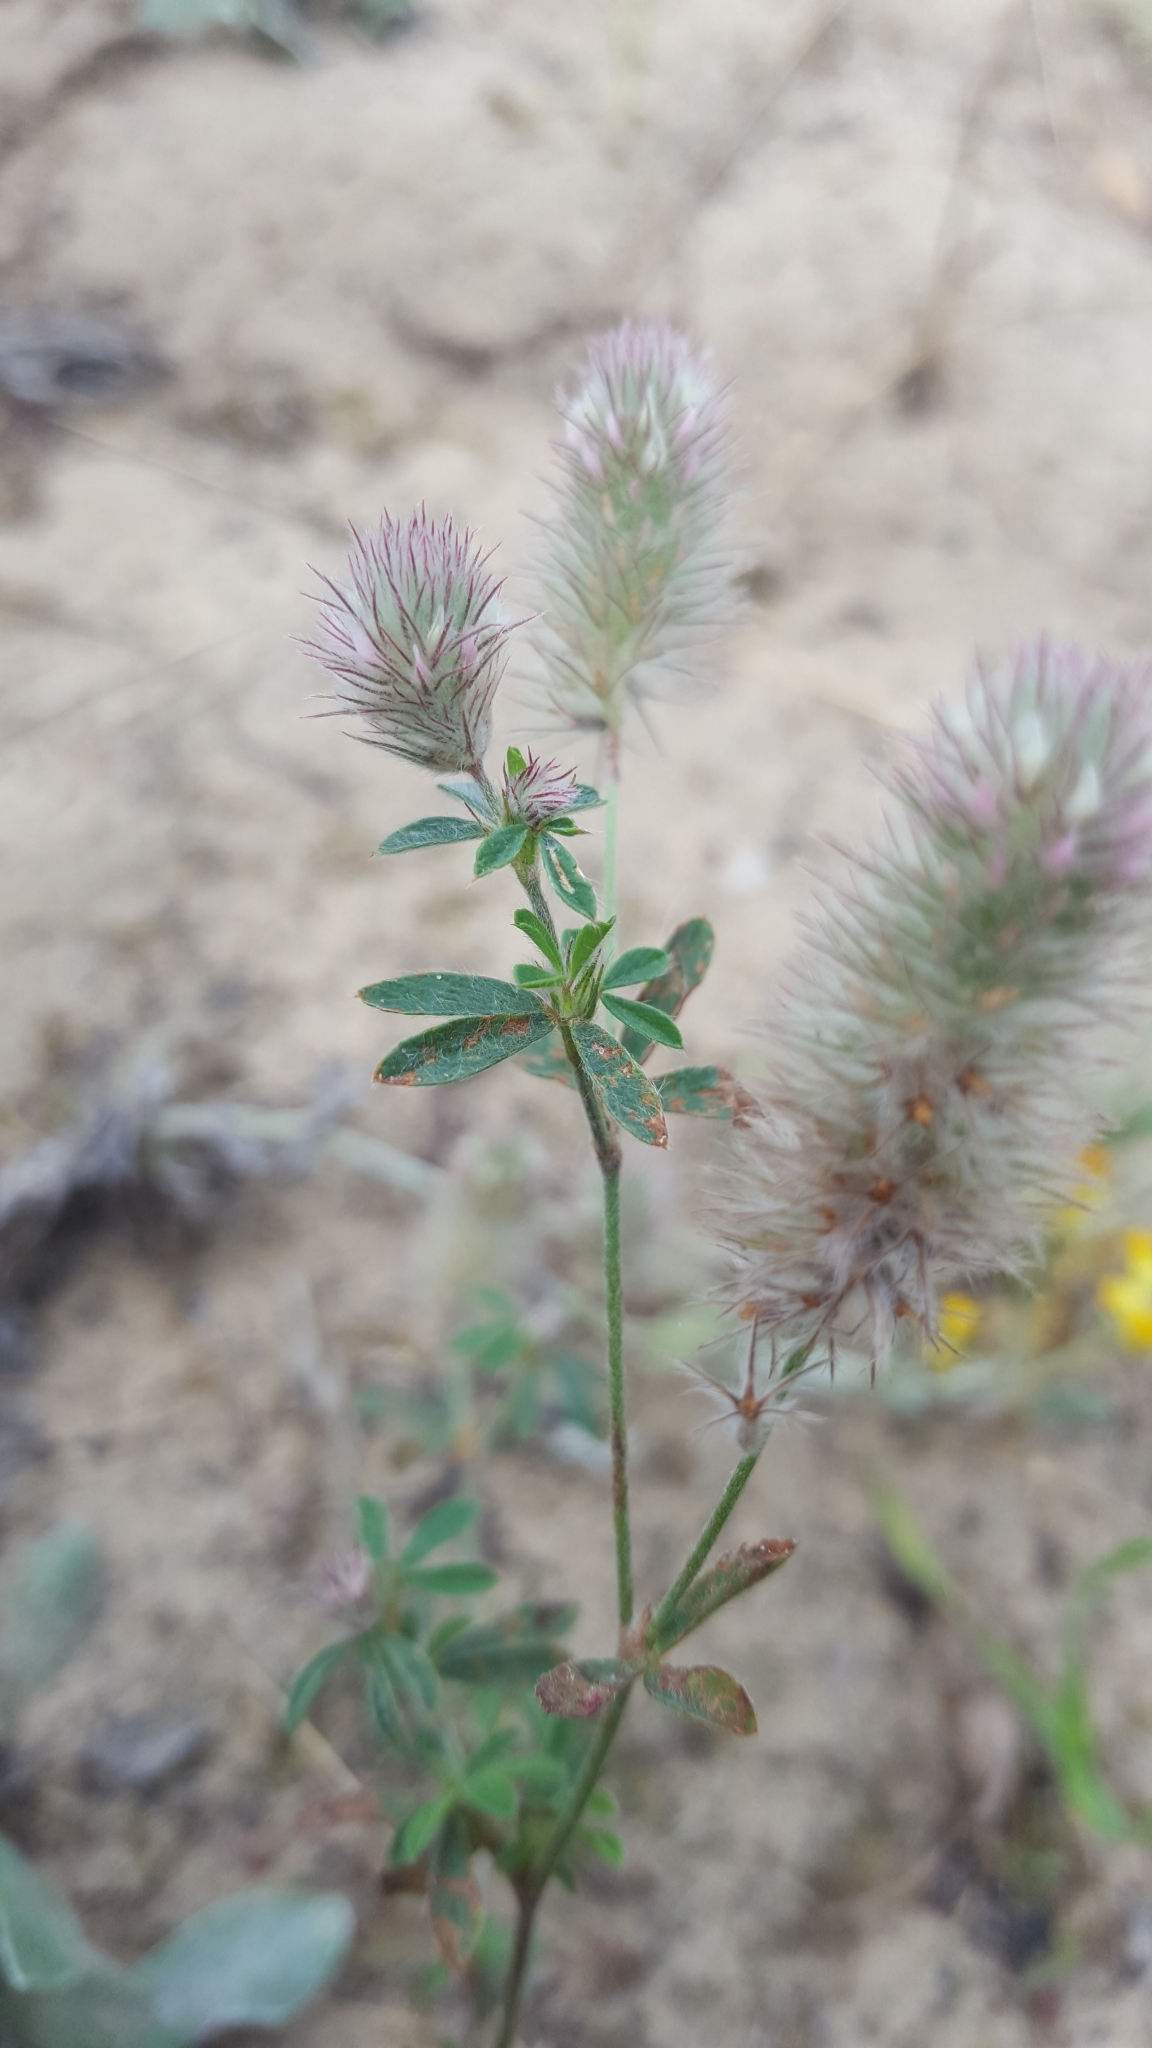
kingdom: Plantae
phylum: Tracheophyta
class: Magnoliopsida
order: Fabales
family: Fabaceae
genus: Trifolium
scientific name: Trifolium arvense
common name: Hare's-foot clover
